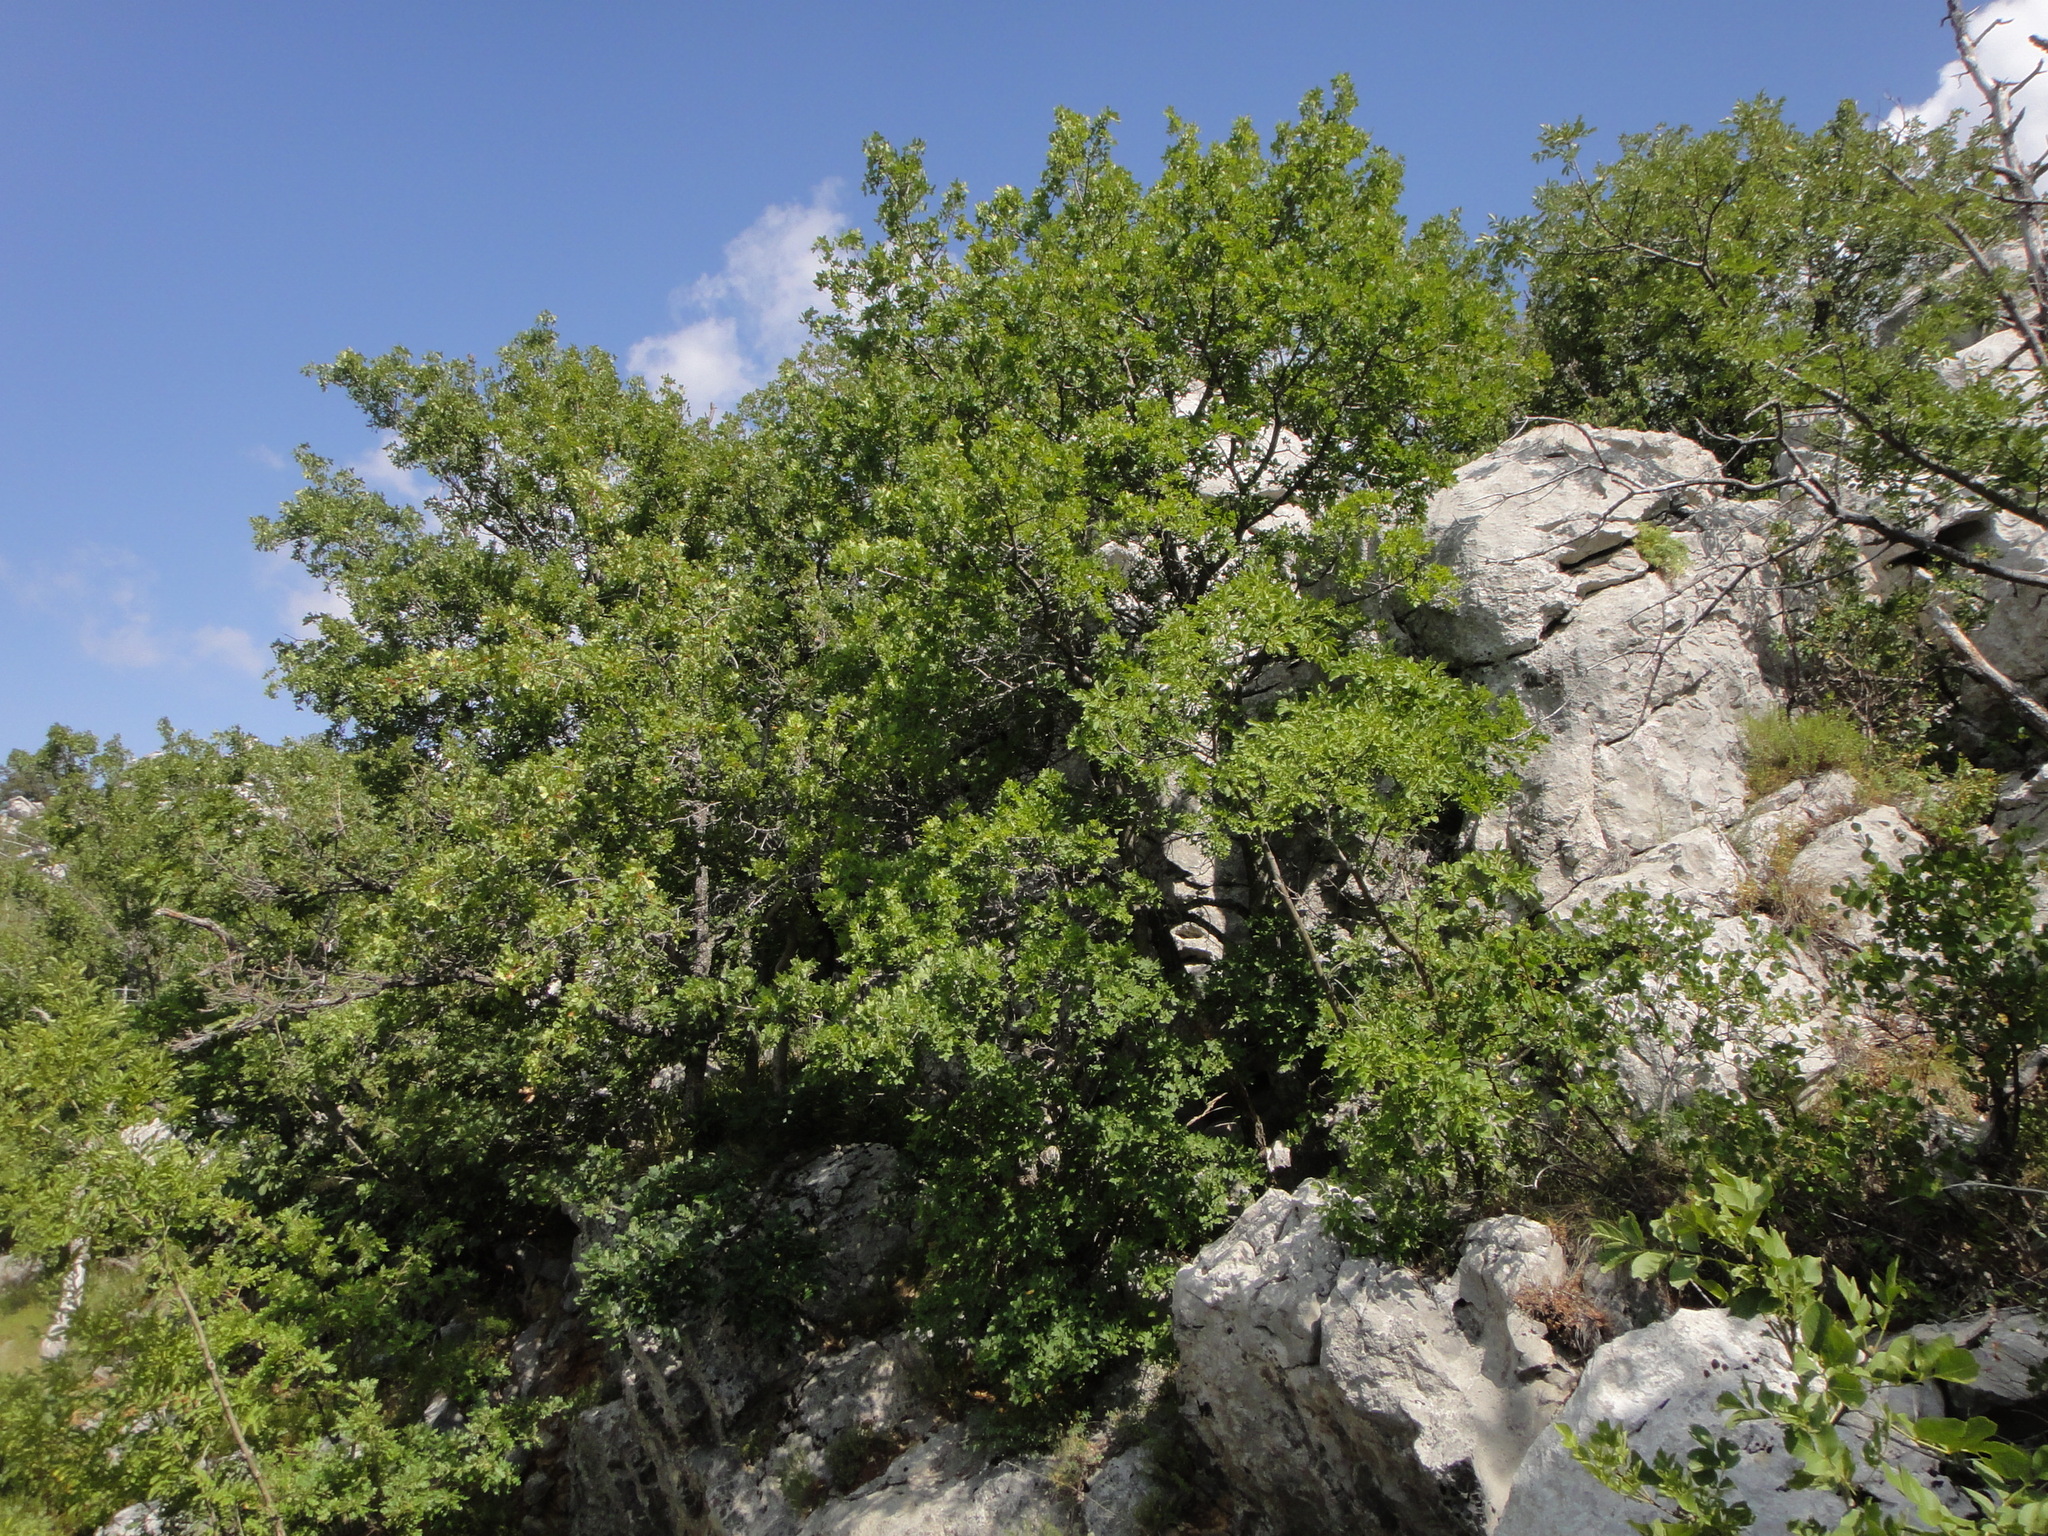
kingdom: Plantae
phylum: Tracheophyta
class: Magnoliopsida
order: Sapindales
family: Sapindaceae
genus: Acer
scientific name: Acer monspessulanum
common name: Montpellier maple
